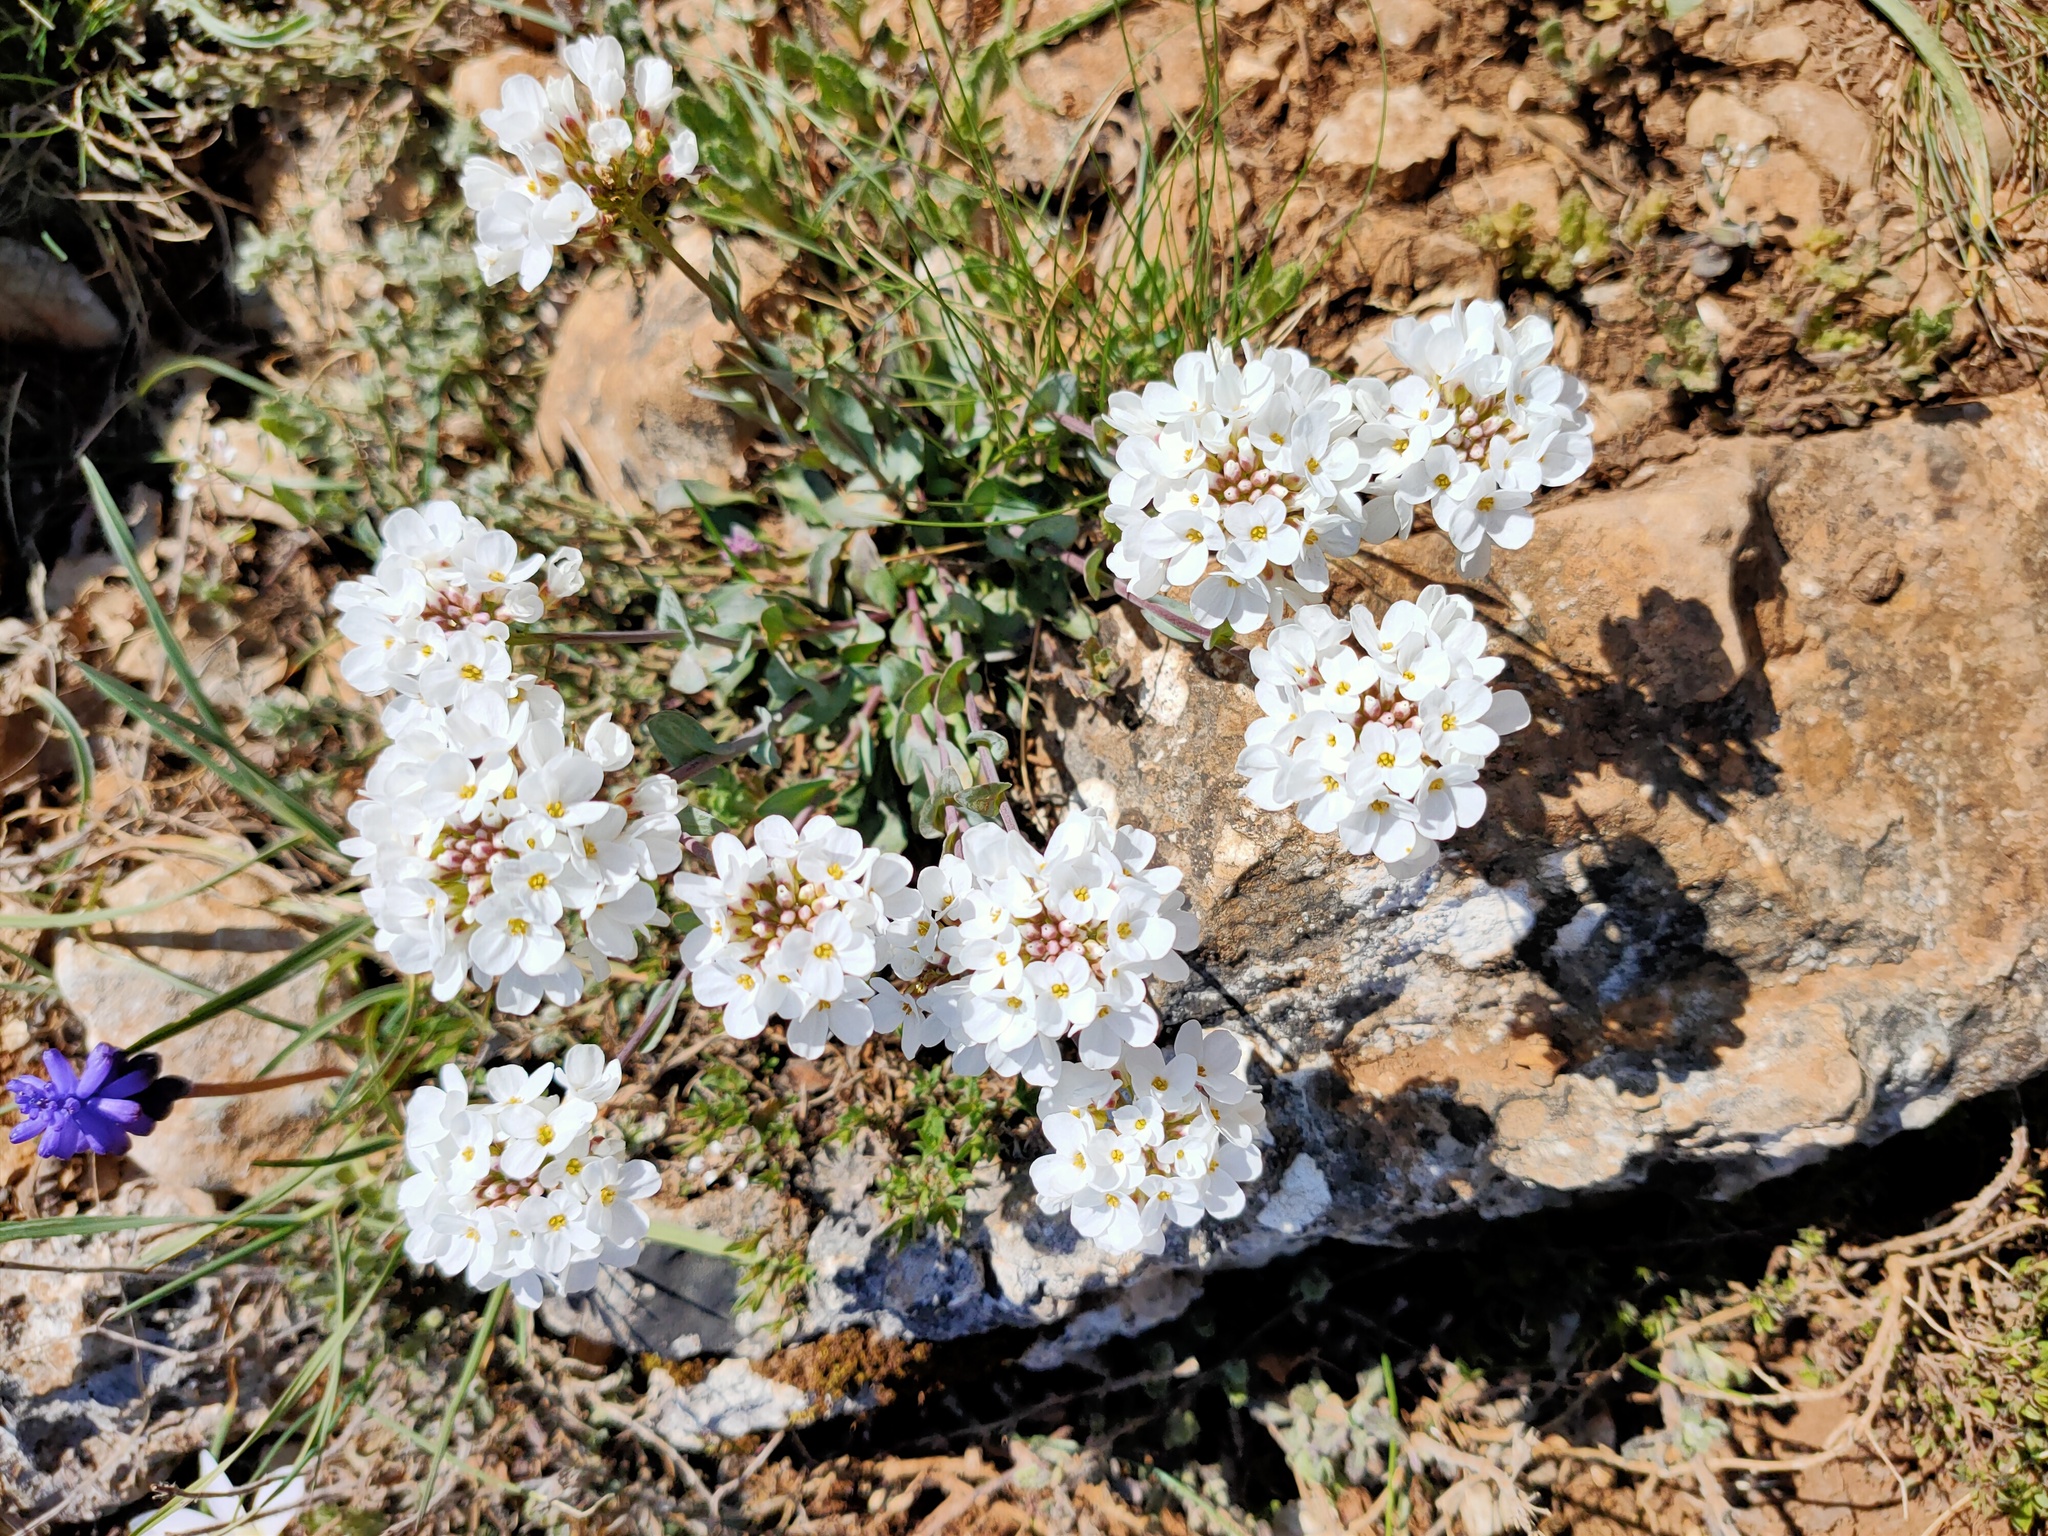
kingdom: Plantae
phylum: Tracheophyta
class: Magnoliopsida
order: Brassicales
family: Brassicaceae
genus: Noccaea
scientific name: Noccaea macrantha
